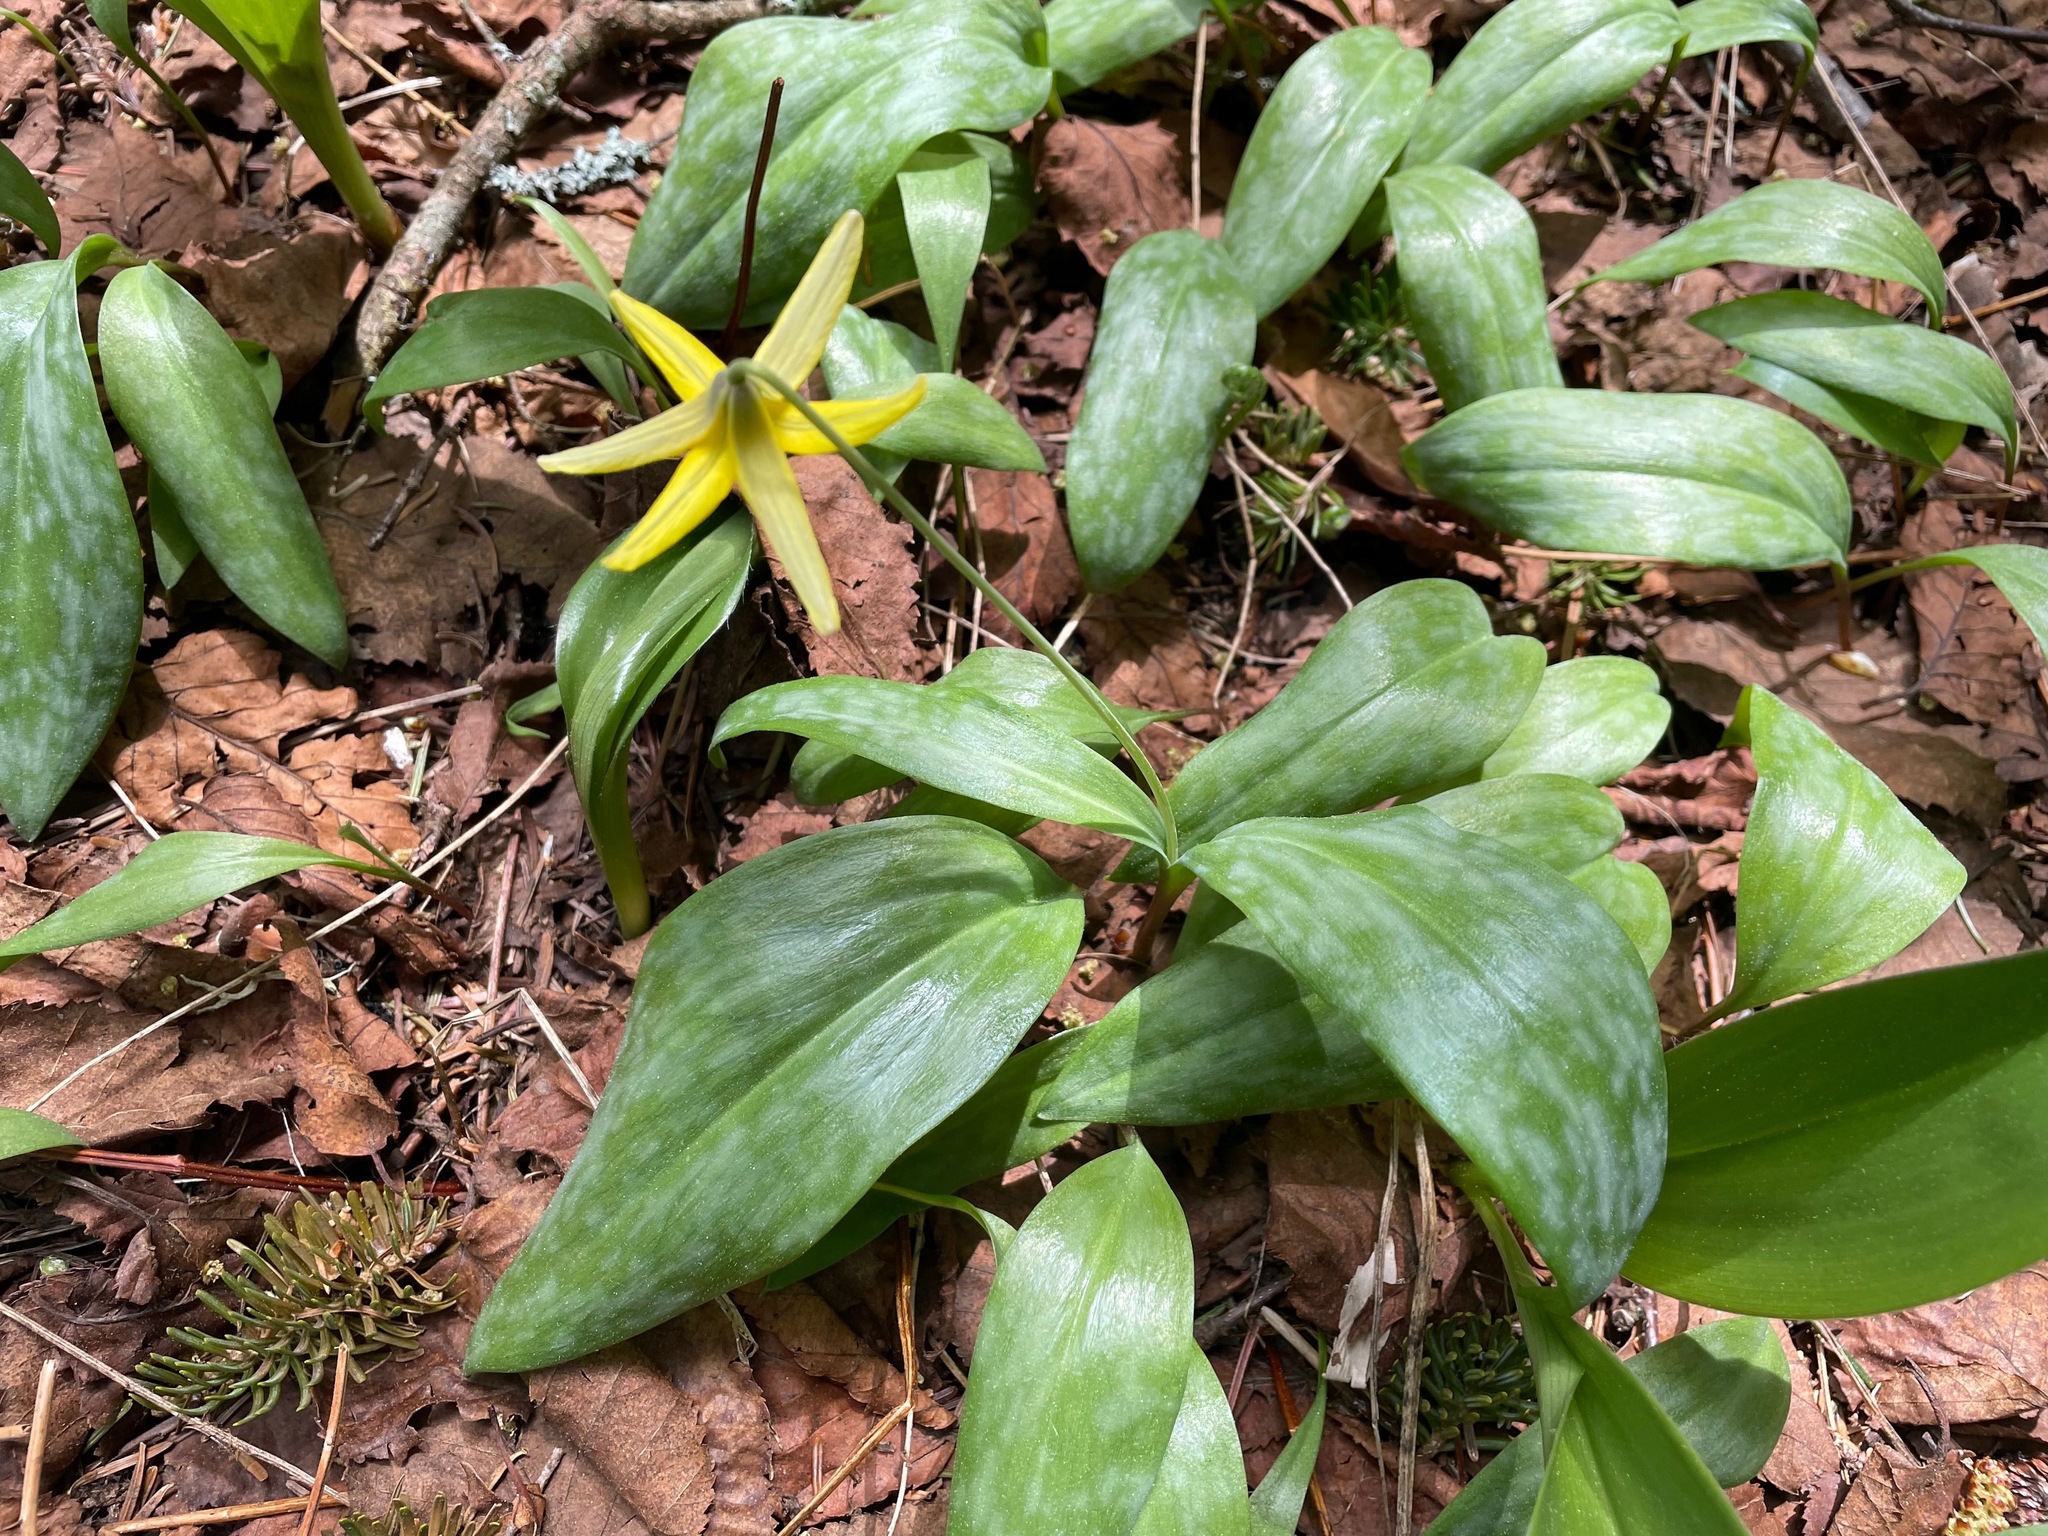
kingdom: Plantae
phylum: Tracheophyta
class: Liliopsida
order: Liliales
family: Liliaceae
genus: Erythronium
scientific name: Erythronium americanum
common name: Yellow adder's-tongue
